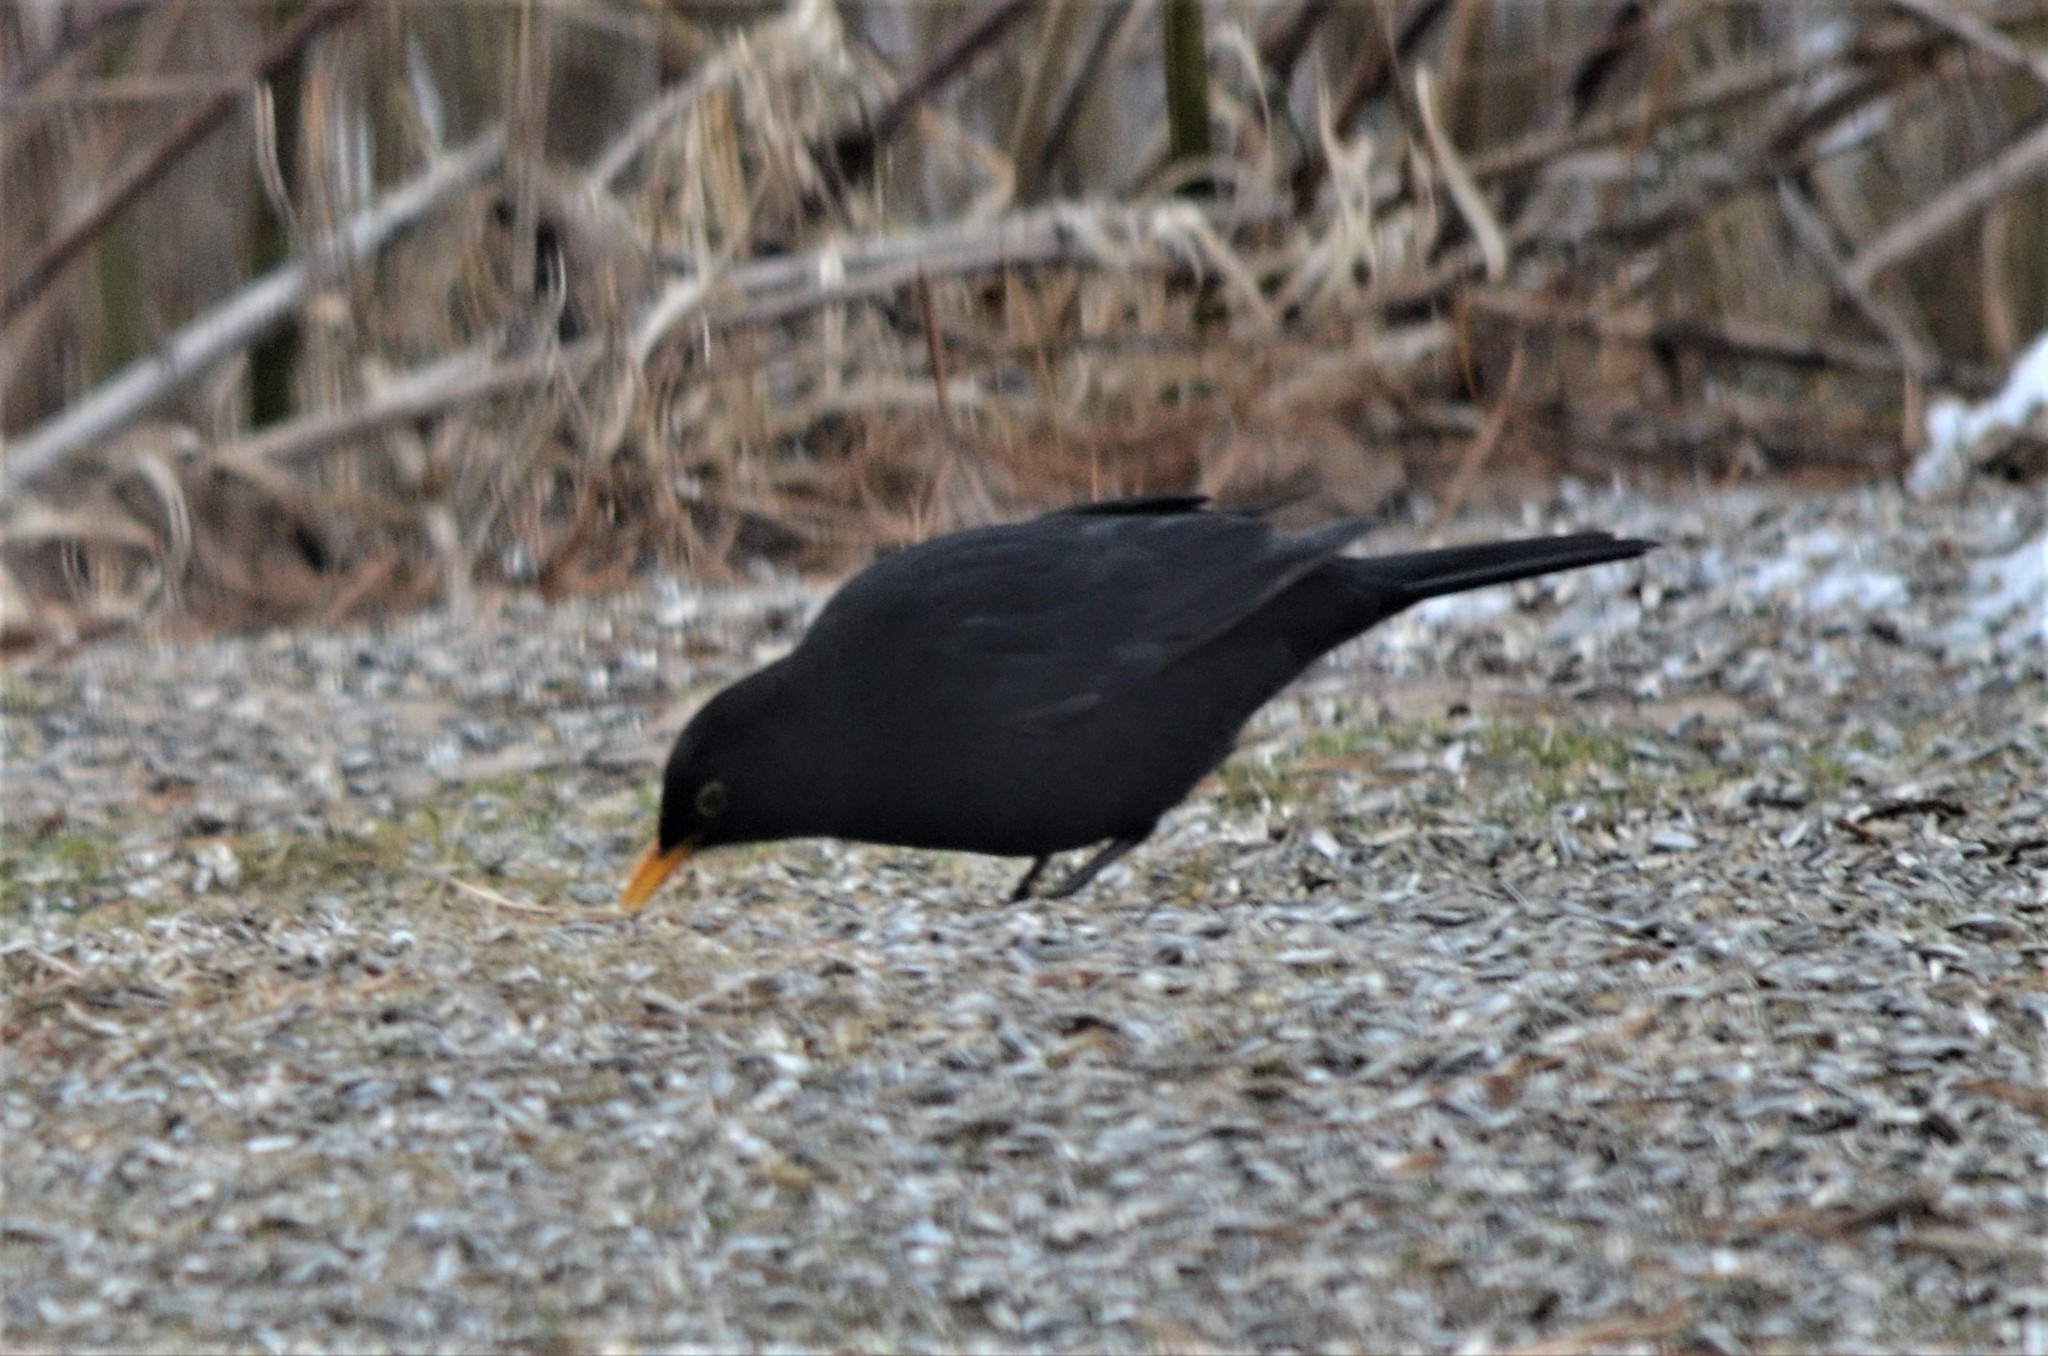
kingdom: Animalia
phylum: Chordata
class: Aves
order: Passeriformes
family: Turdidae
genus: Turdus
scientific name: Turdus merula
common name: Common blackbird
